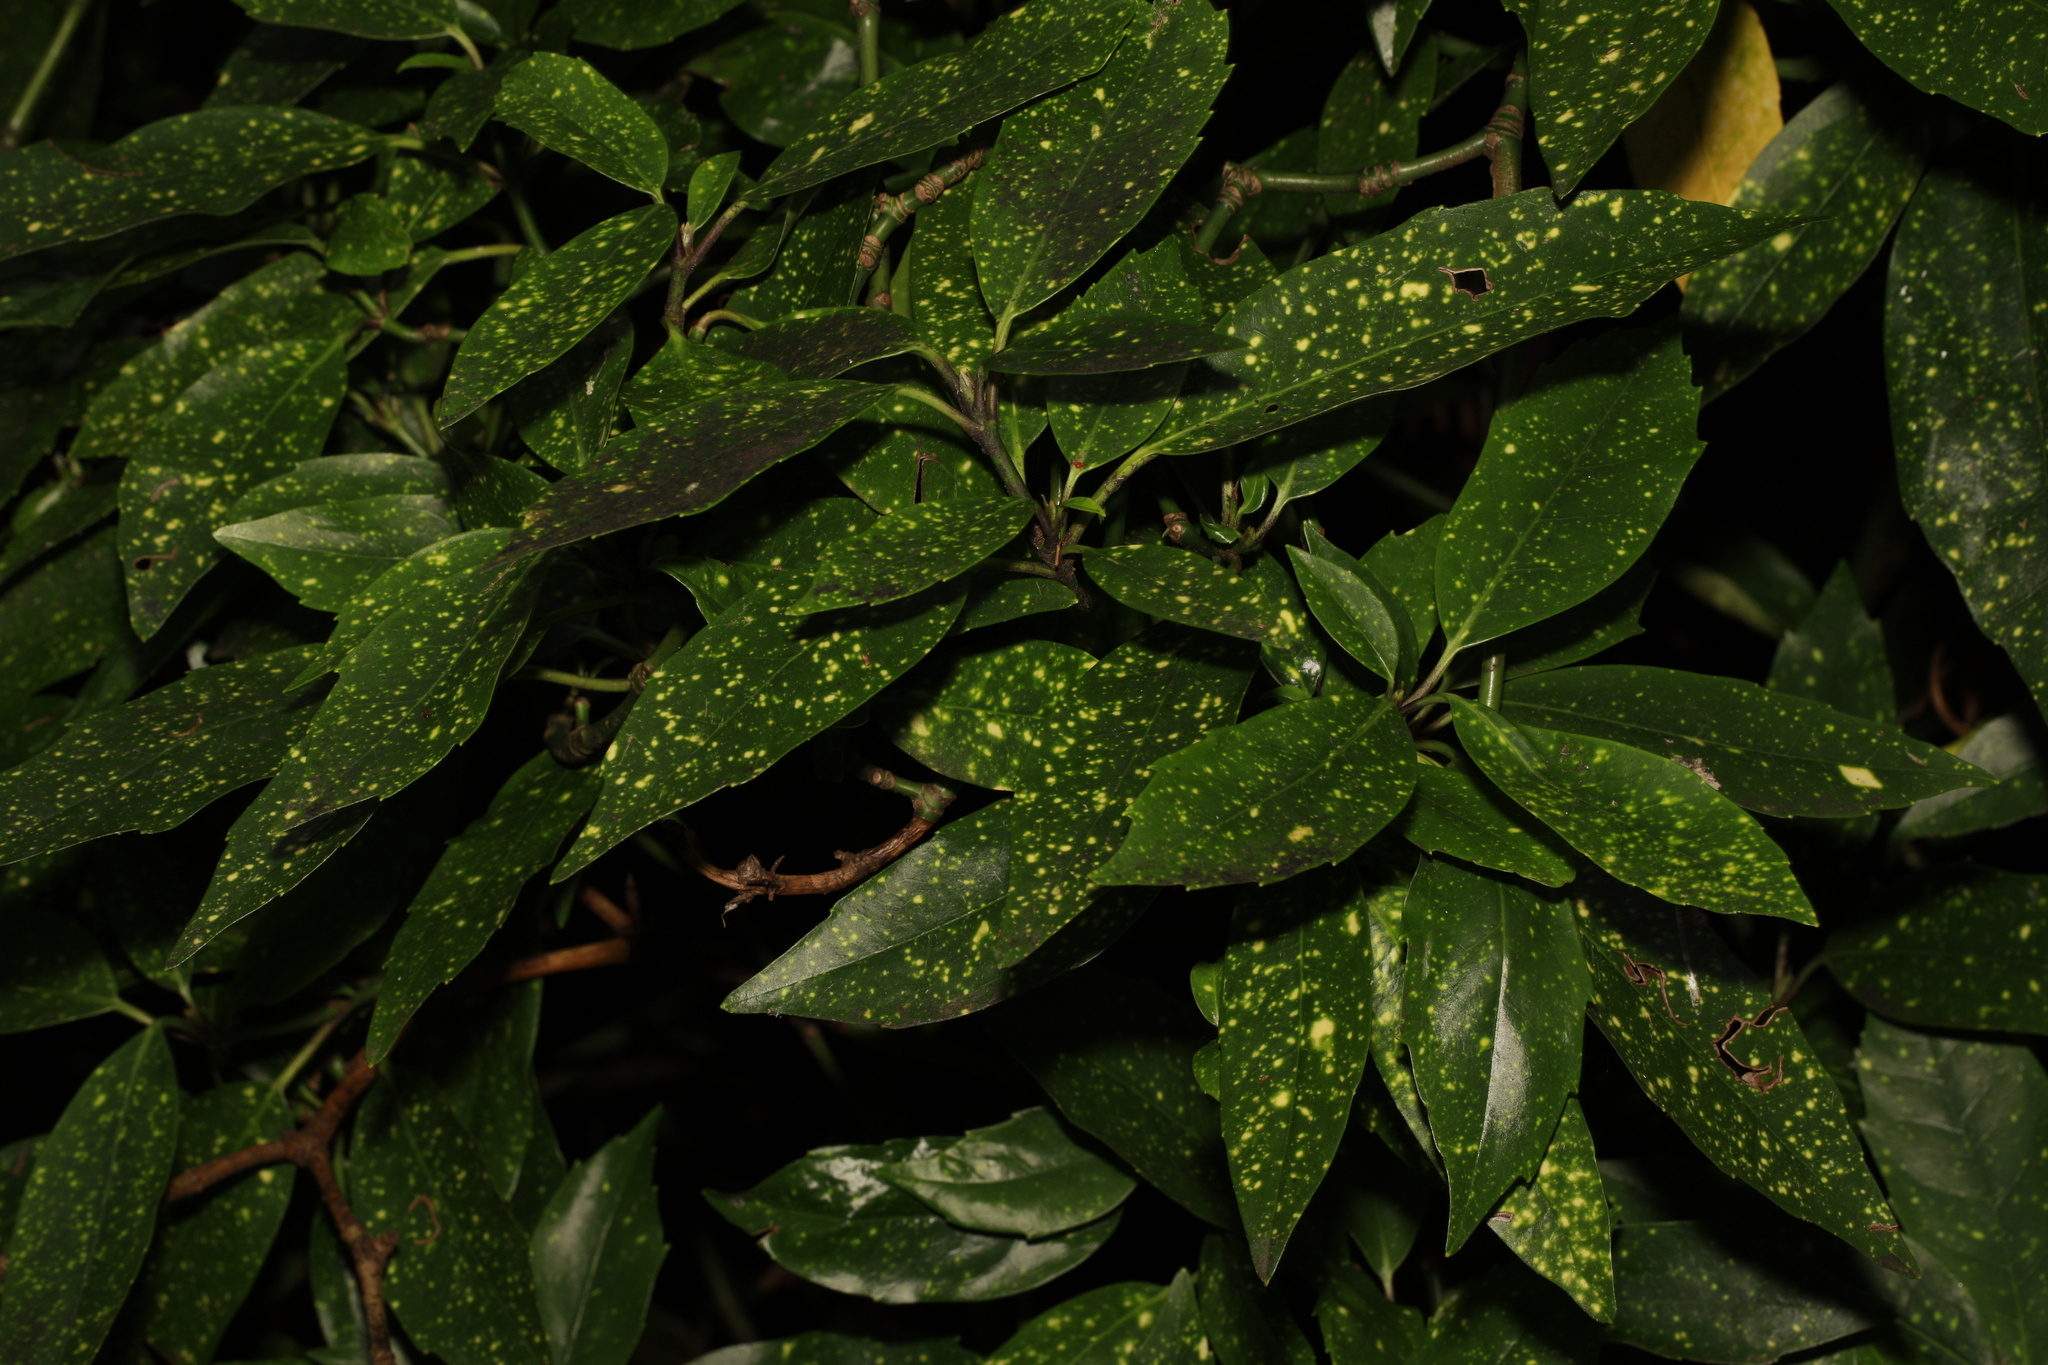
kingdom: Plantae
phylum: Tracheophyta
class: Magnoliopsida
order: Garryales
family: Garryaceae
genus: Aucuba
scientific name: Aucuba japonica
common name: Spotted-laurel
